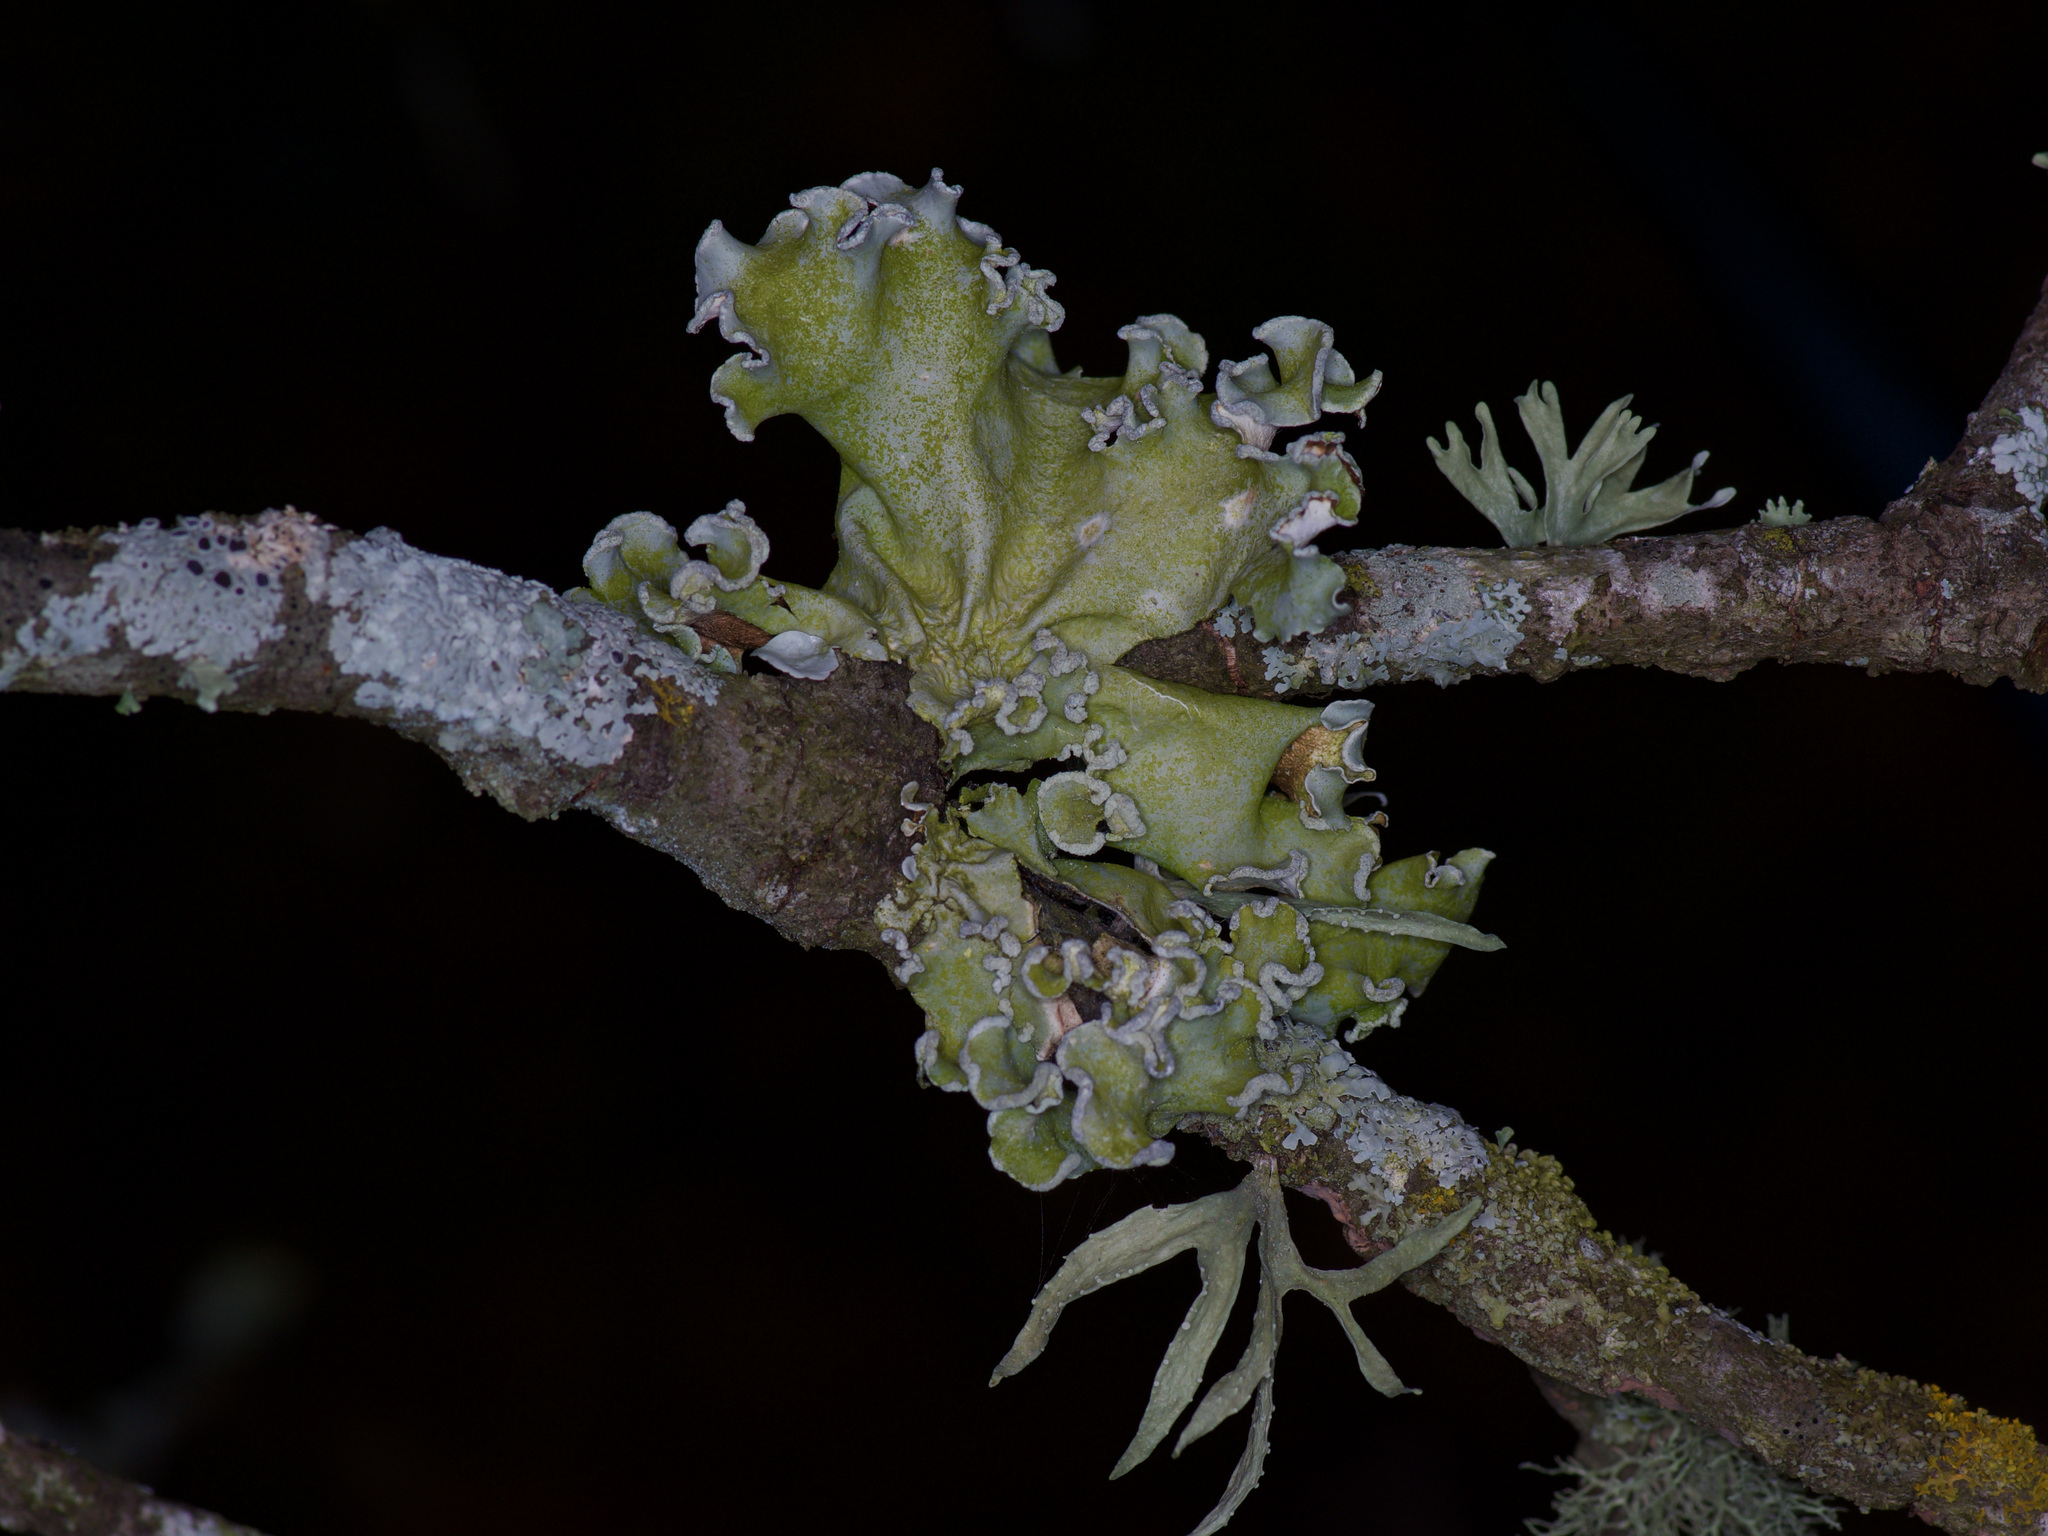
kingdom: Fungi
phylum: Ascomycota
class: Lecanoromycetes
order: Lecanorales
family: Ramalinaceae
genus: Ramalina
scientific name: Ramalina celastri
